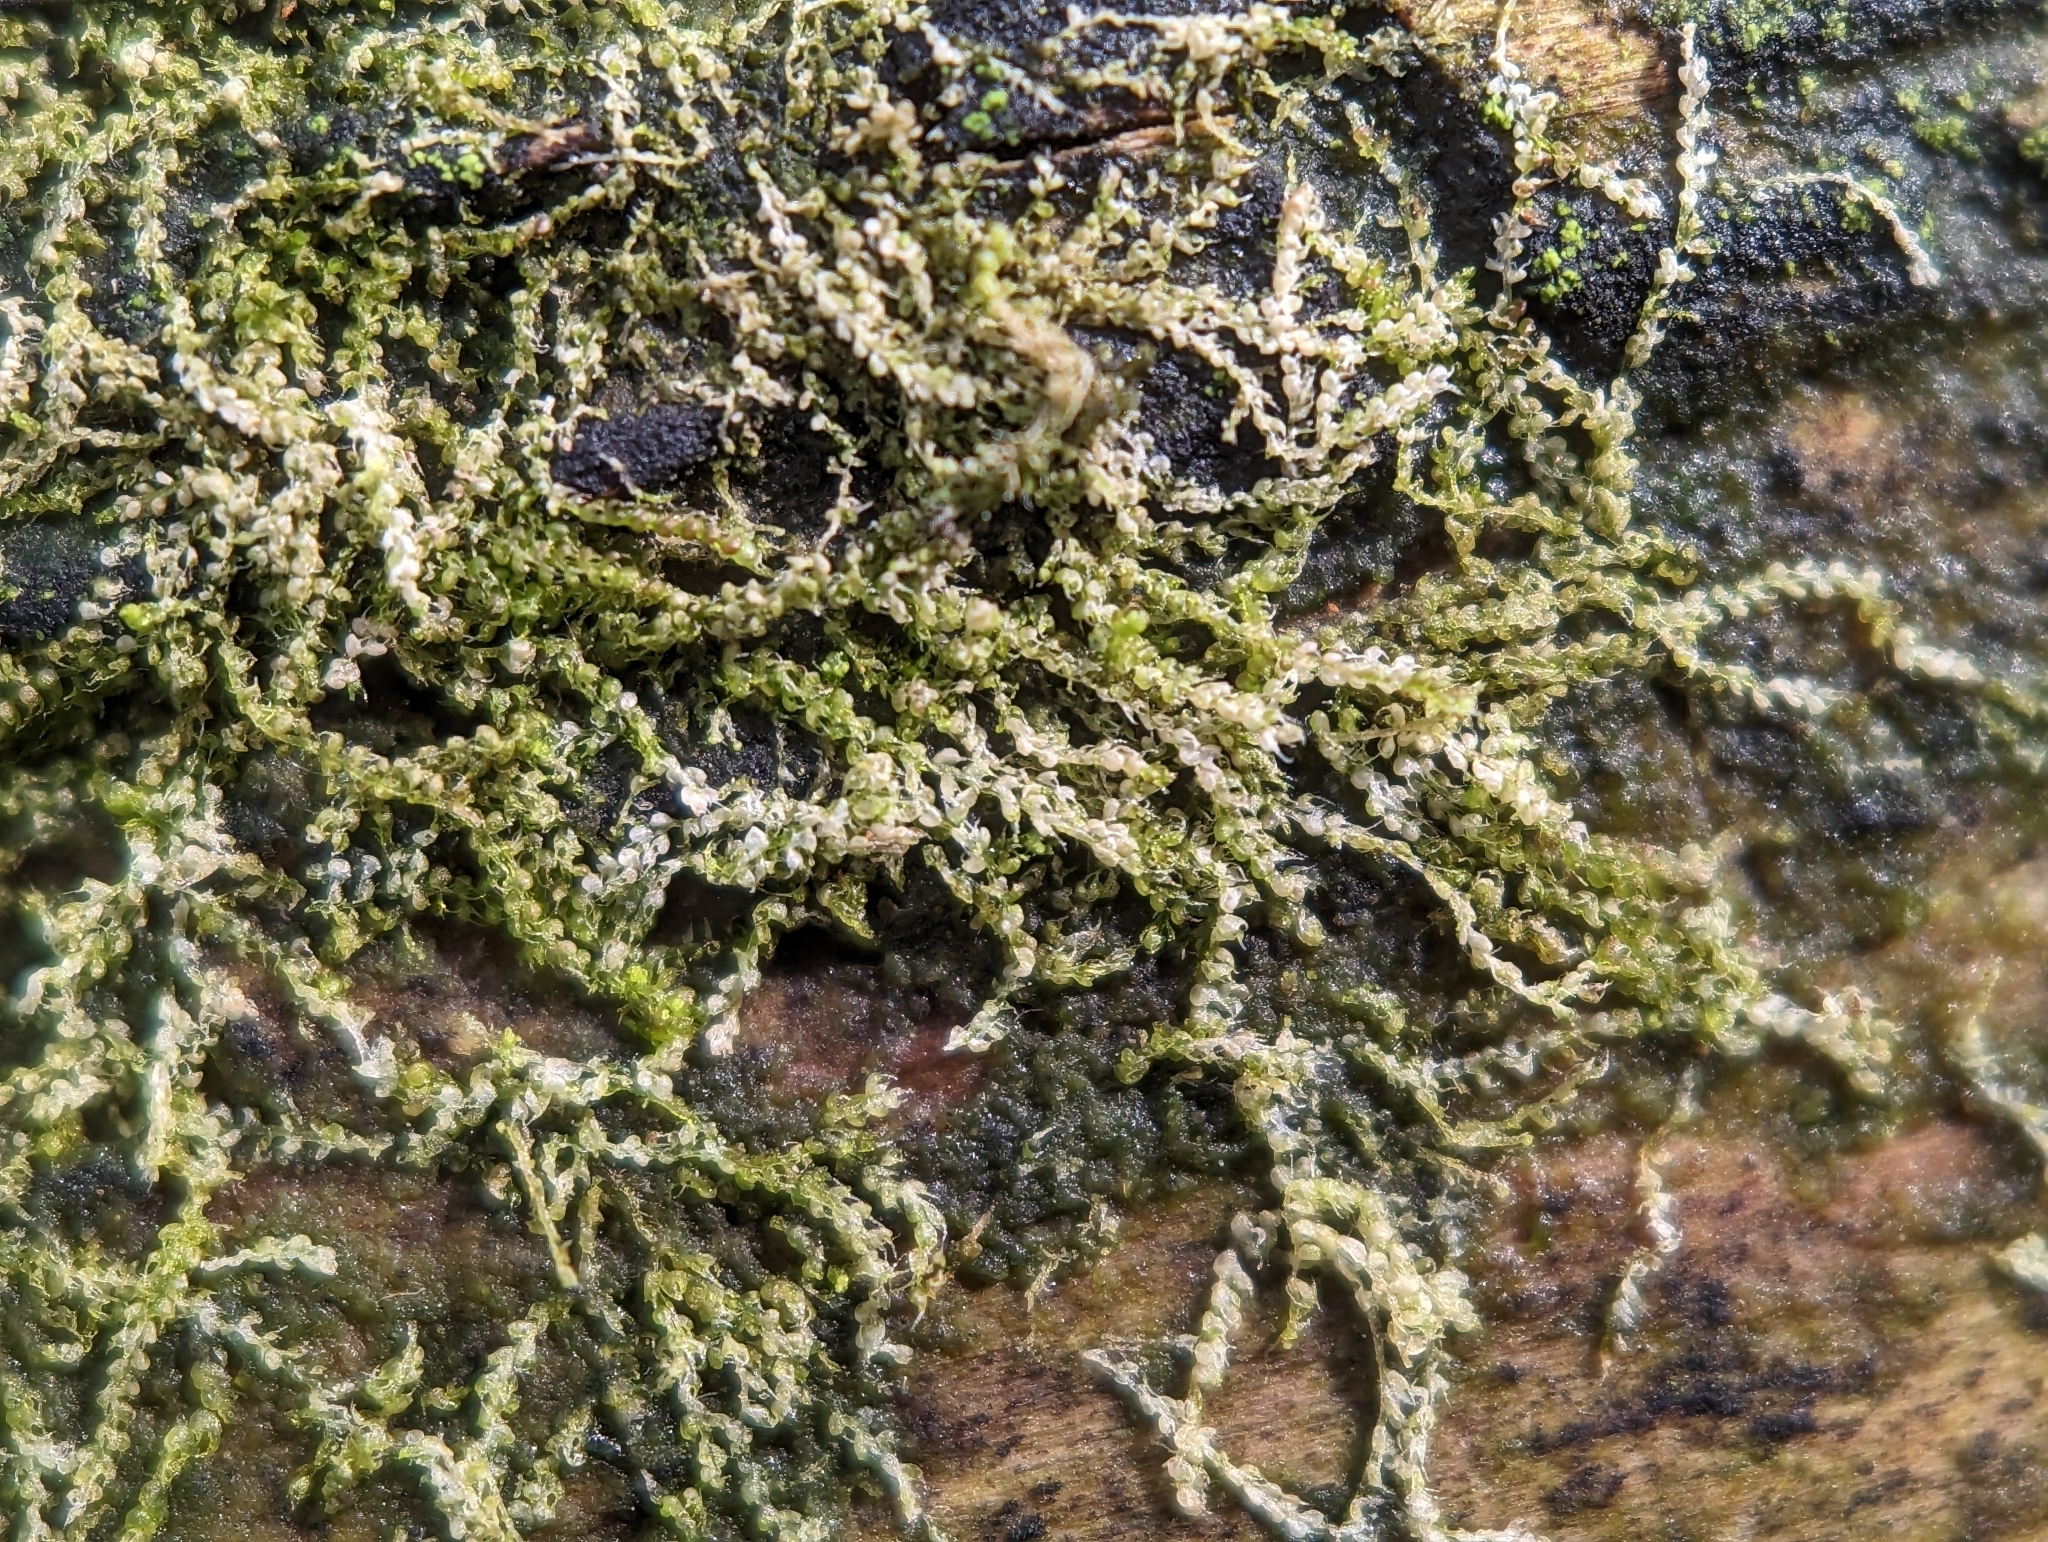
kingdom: Plantae
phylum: Marchantiophyta
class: Jungermanniopsida
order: Jungermanniales
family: Cephaloziaceae
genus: Nowellia
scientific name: Nowellia curvifolia
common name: Wood rustwort
